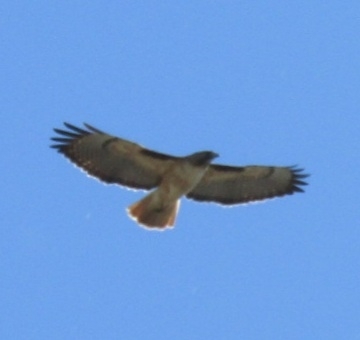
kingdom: Animalia
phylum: Chordata
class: Aves
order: Accipitriformes
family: Accipitridae
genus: Buteo
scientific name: Buteo jamaicensis
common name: Red-tailed hawk
